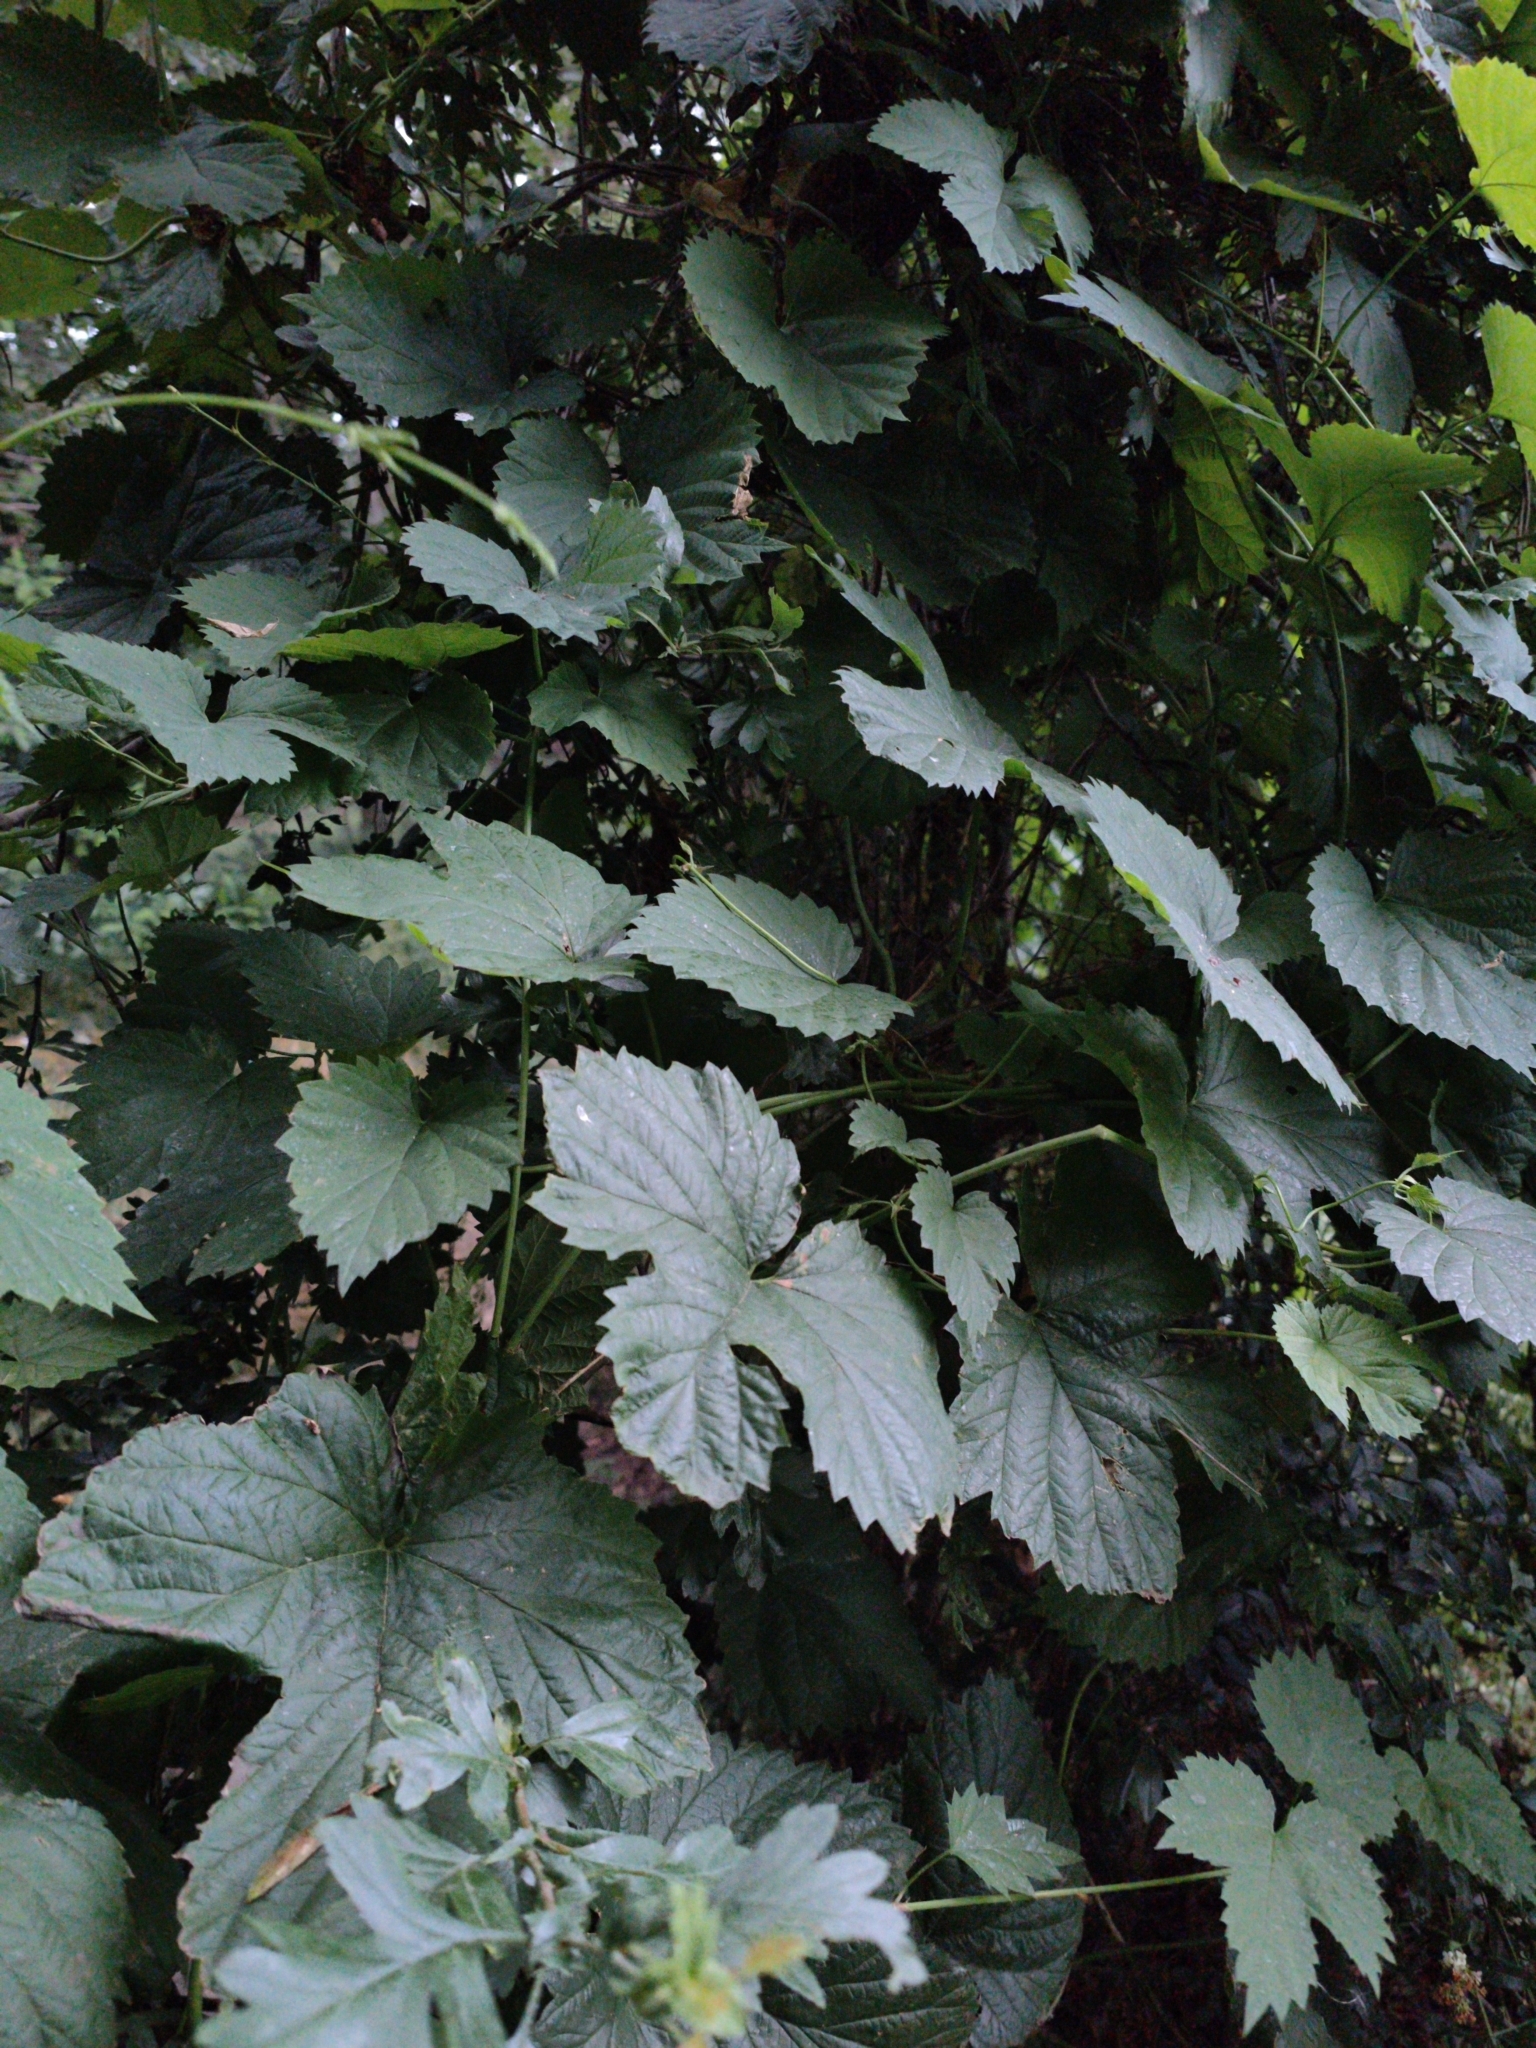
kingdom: Plantae
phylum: Tracheophyta
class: Magnoliopsida
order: Rosales
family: Cannabaceae
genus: Humulus
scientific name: Humulus lupulus
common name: Hop
